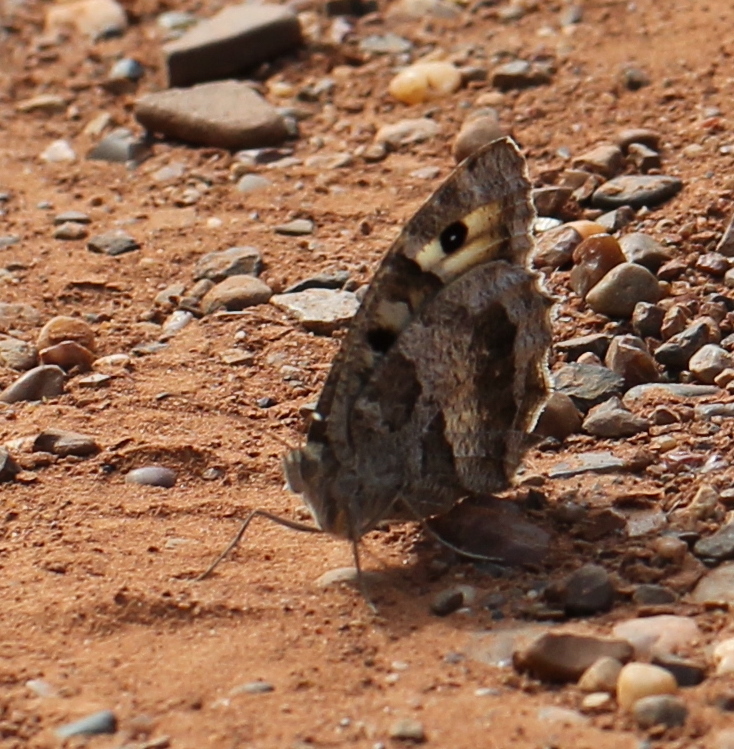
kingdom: Animalia
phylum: Arthropoda
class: Insecta
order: Lepidoptera
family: Nymphalidae
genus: Satyrus
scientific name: Satyrus briseis
